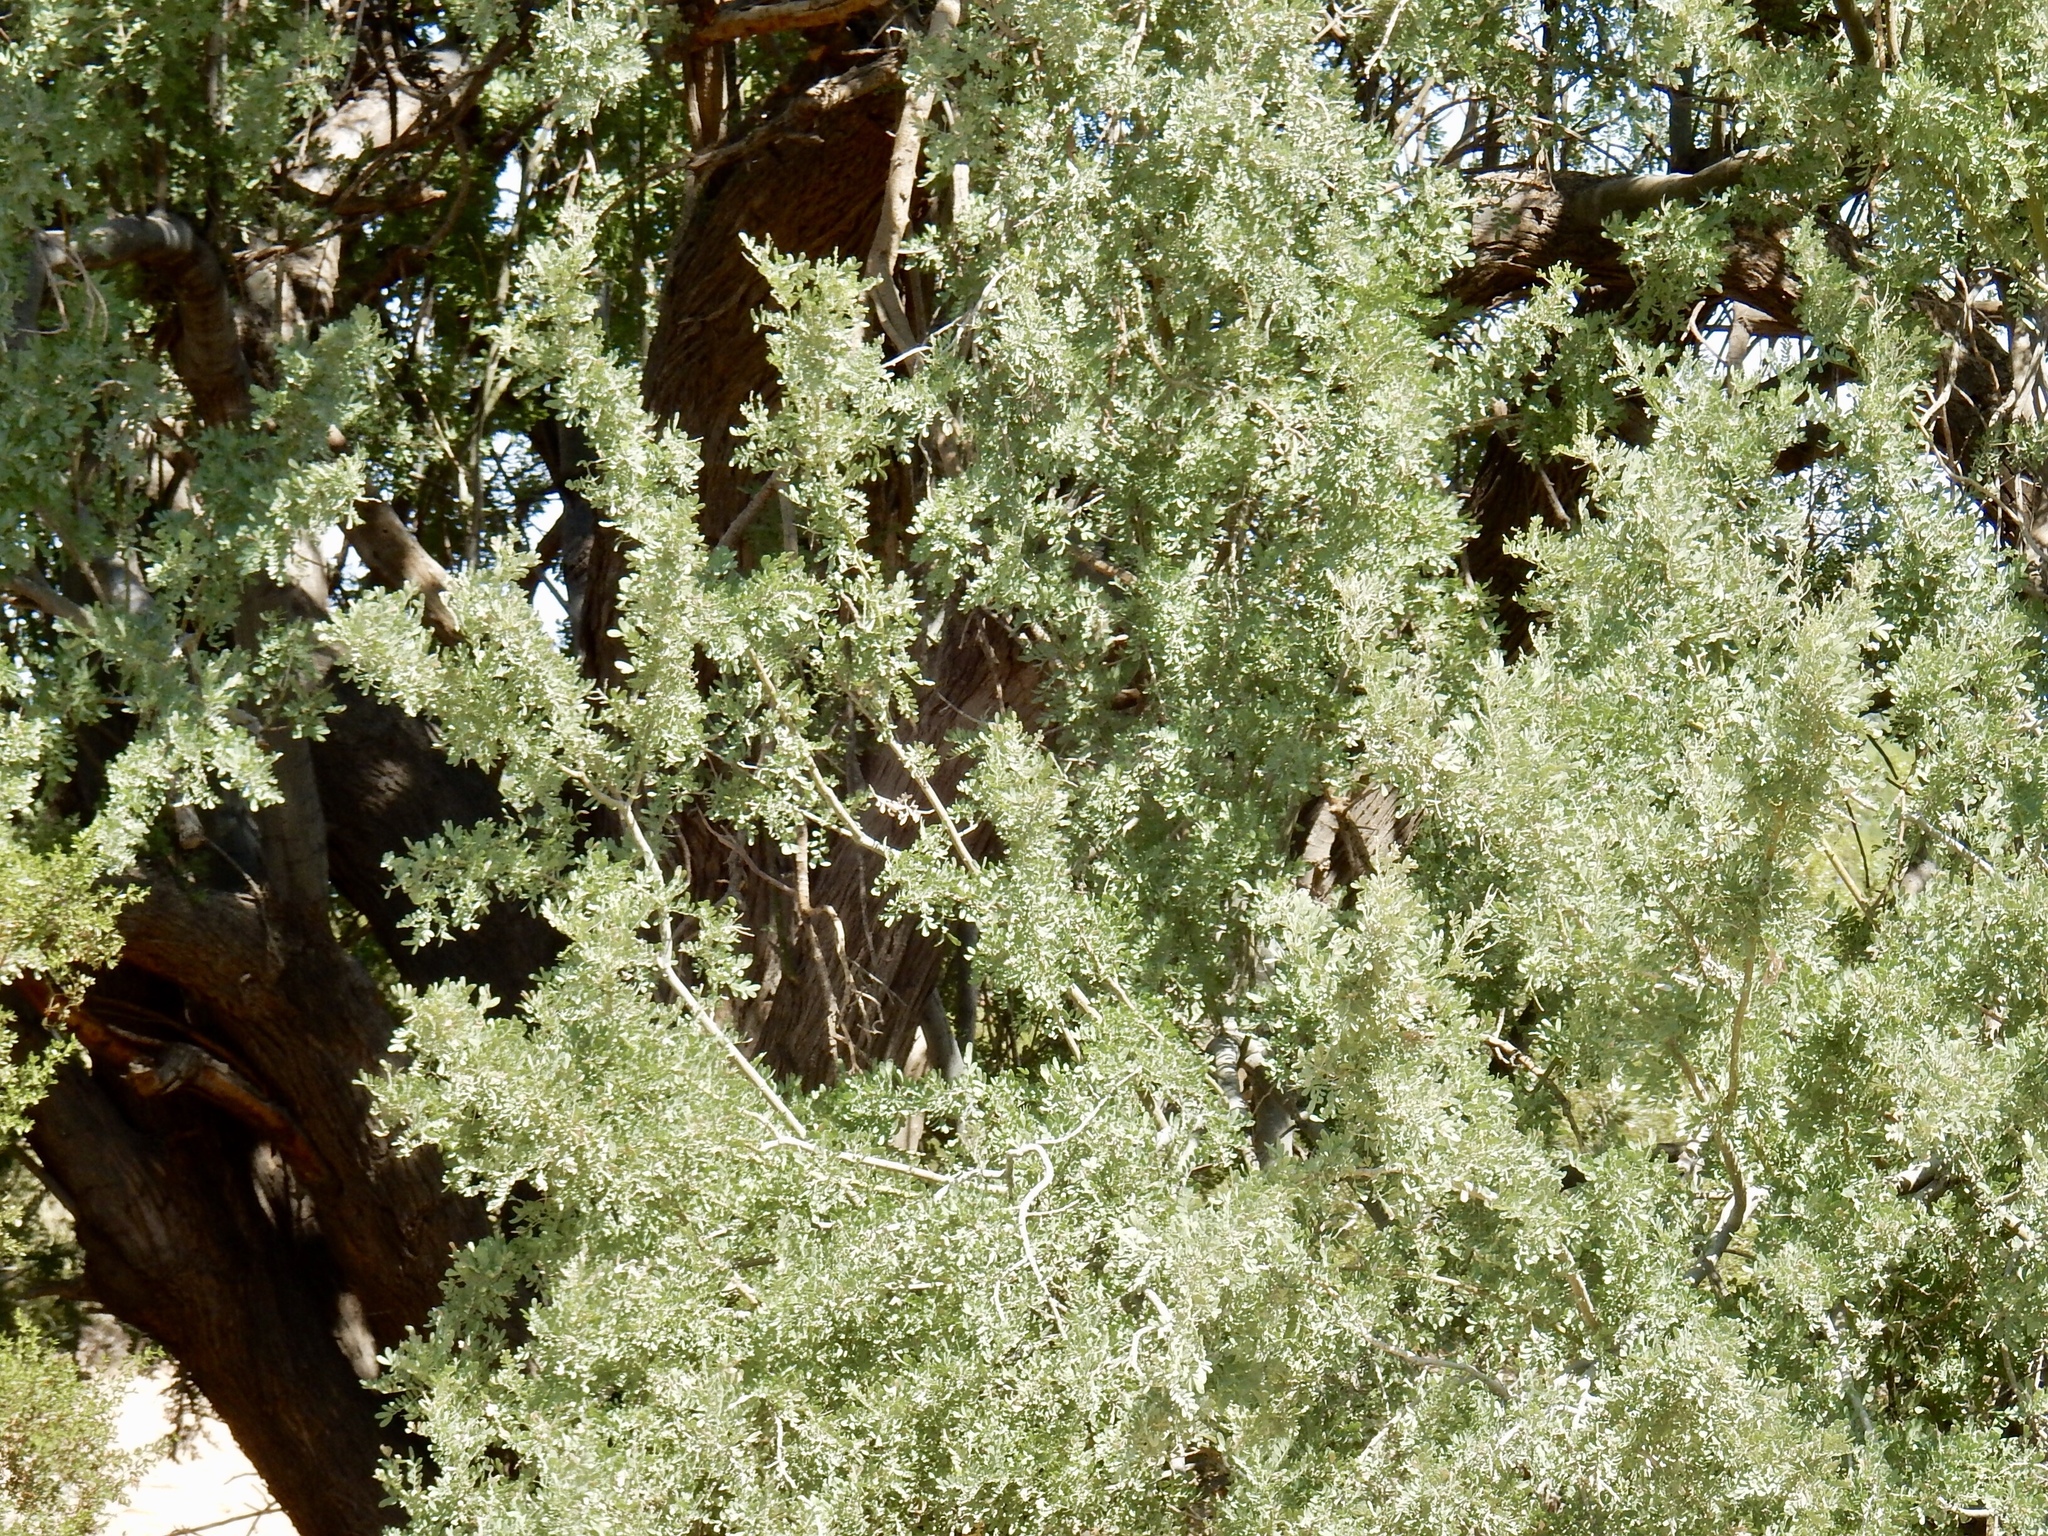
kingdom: Plantae
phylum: Tracheophyta
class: Magnoliopsida
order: Fabales
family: Fabaceae
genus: Senegalia
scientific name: Senegalia greggii
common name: Texas-mimosa
